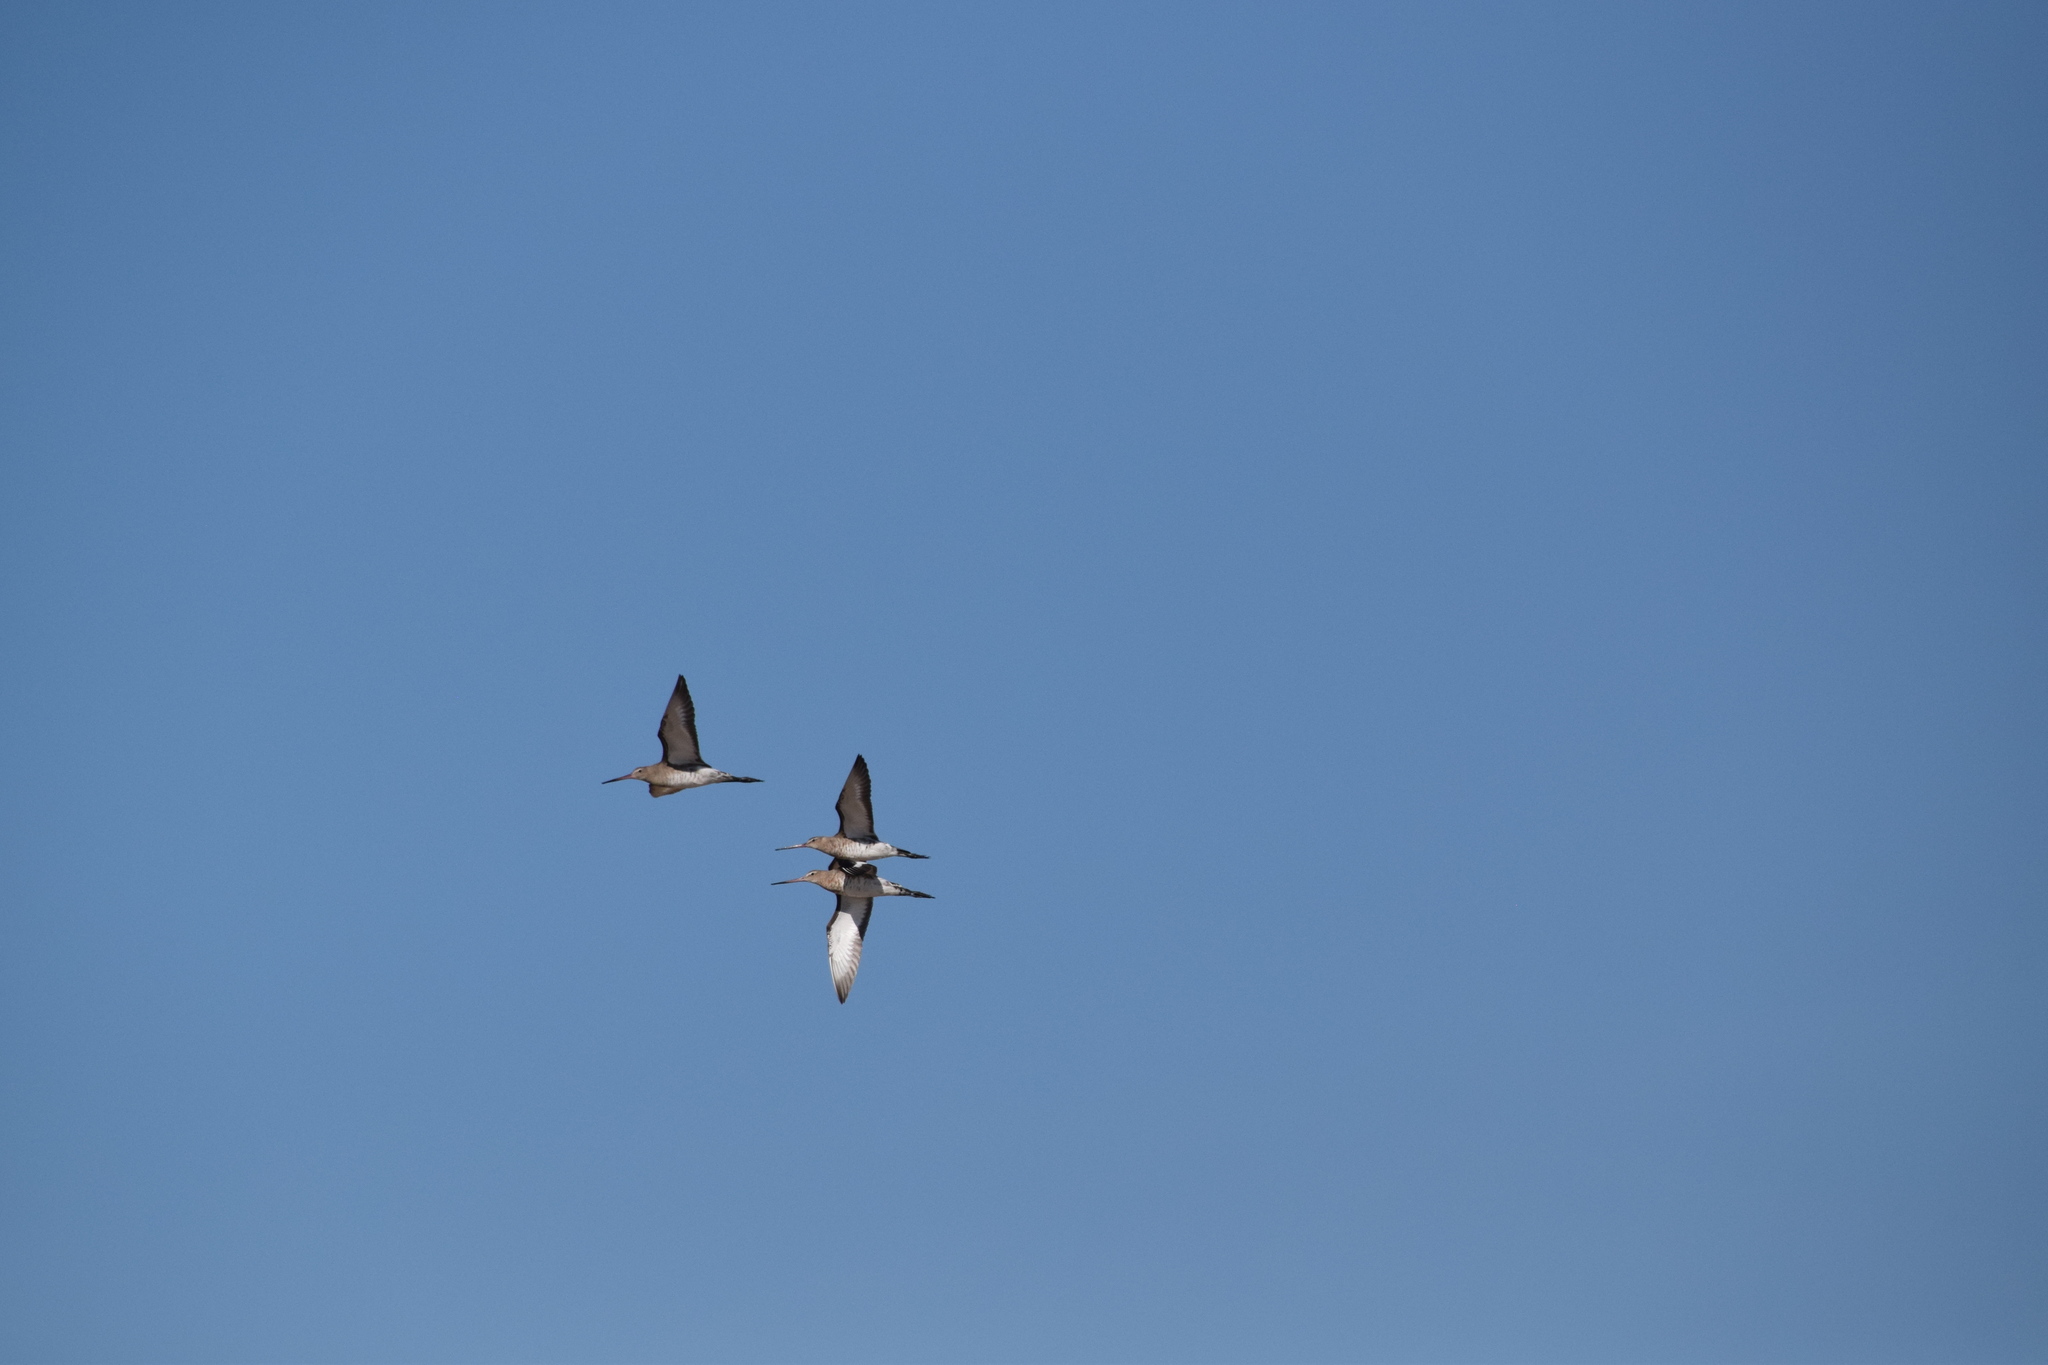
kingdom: Animalia
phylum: Chordata
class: Aves
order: Charadriiformes
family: Scolopacidae
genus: Limosa
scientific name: Limosa limosa
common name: Black-tailed godwit
